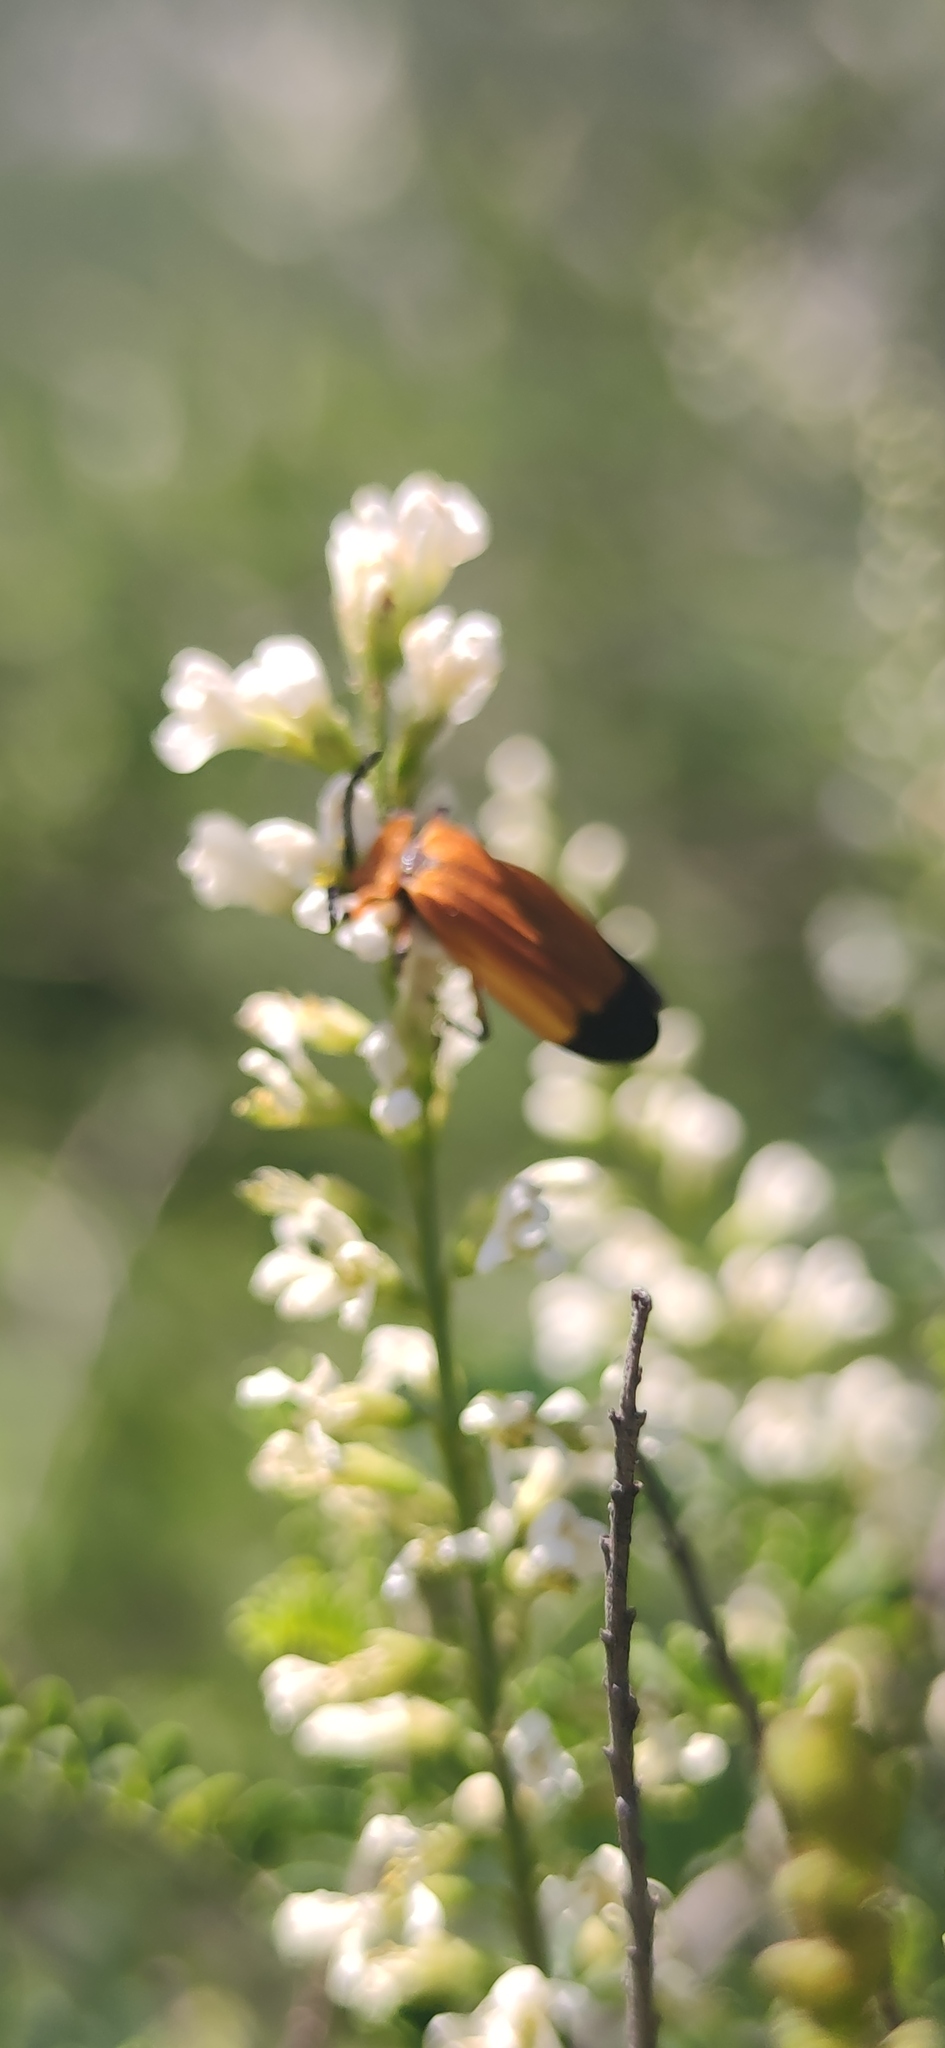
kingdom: Animalia
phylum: Arthropoda
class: Insecta
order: Coleoptera
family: Lycidae
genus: Lycus
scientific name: Lycus fernandezi
